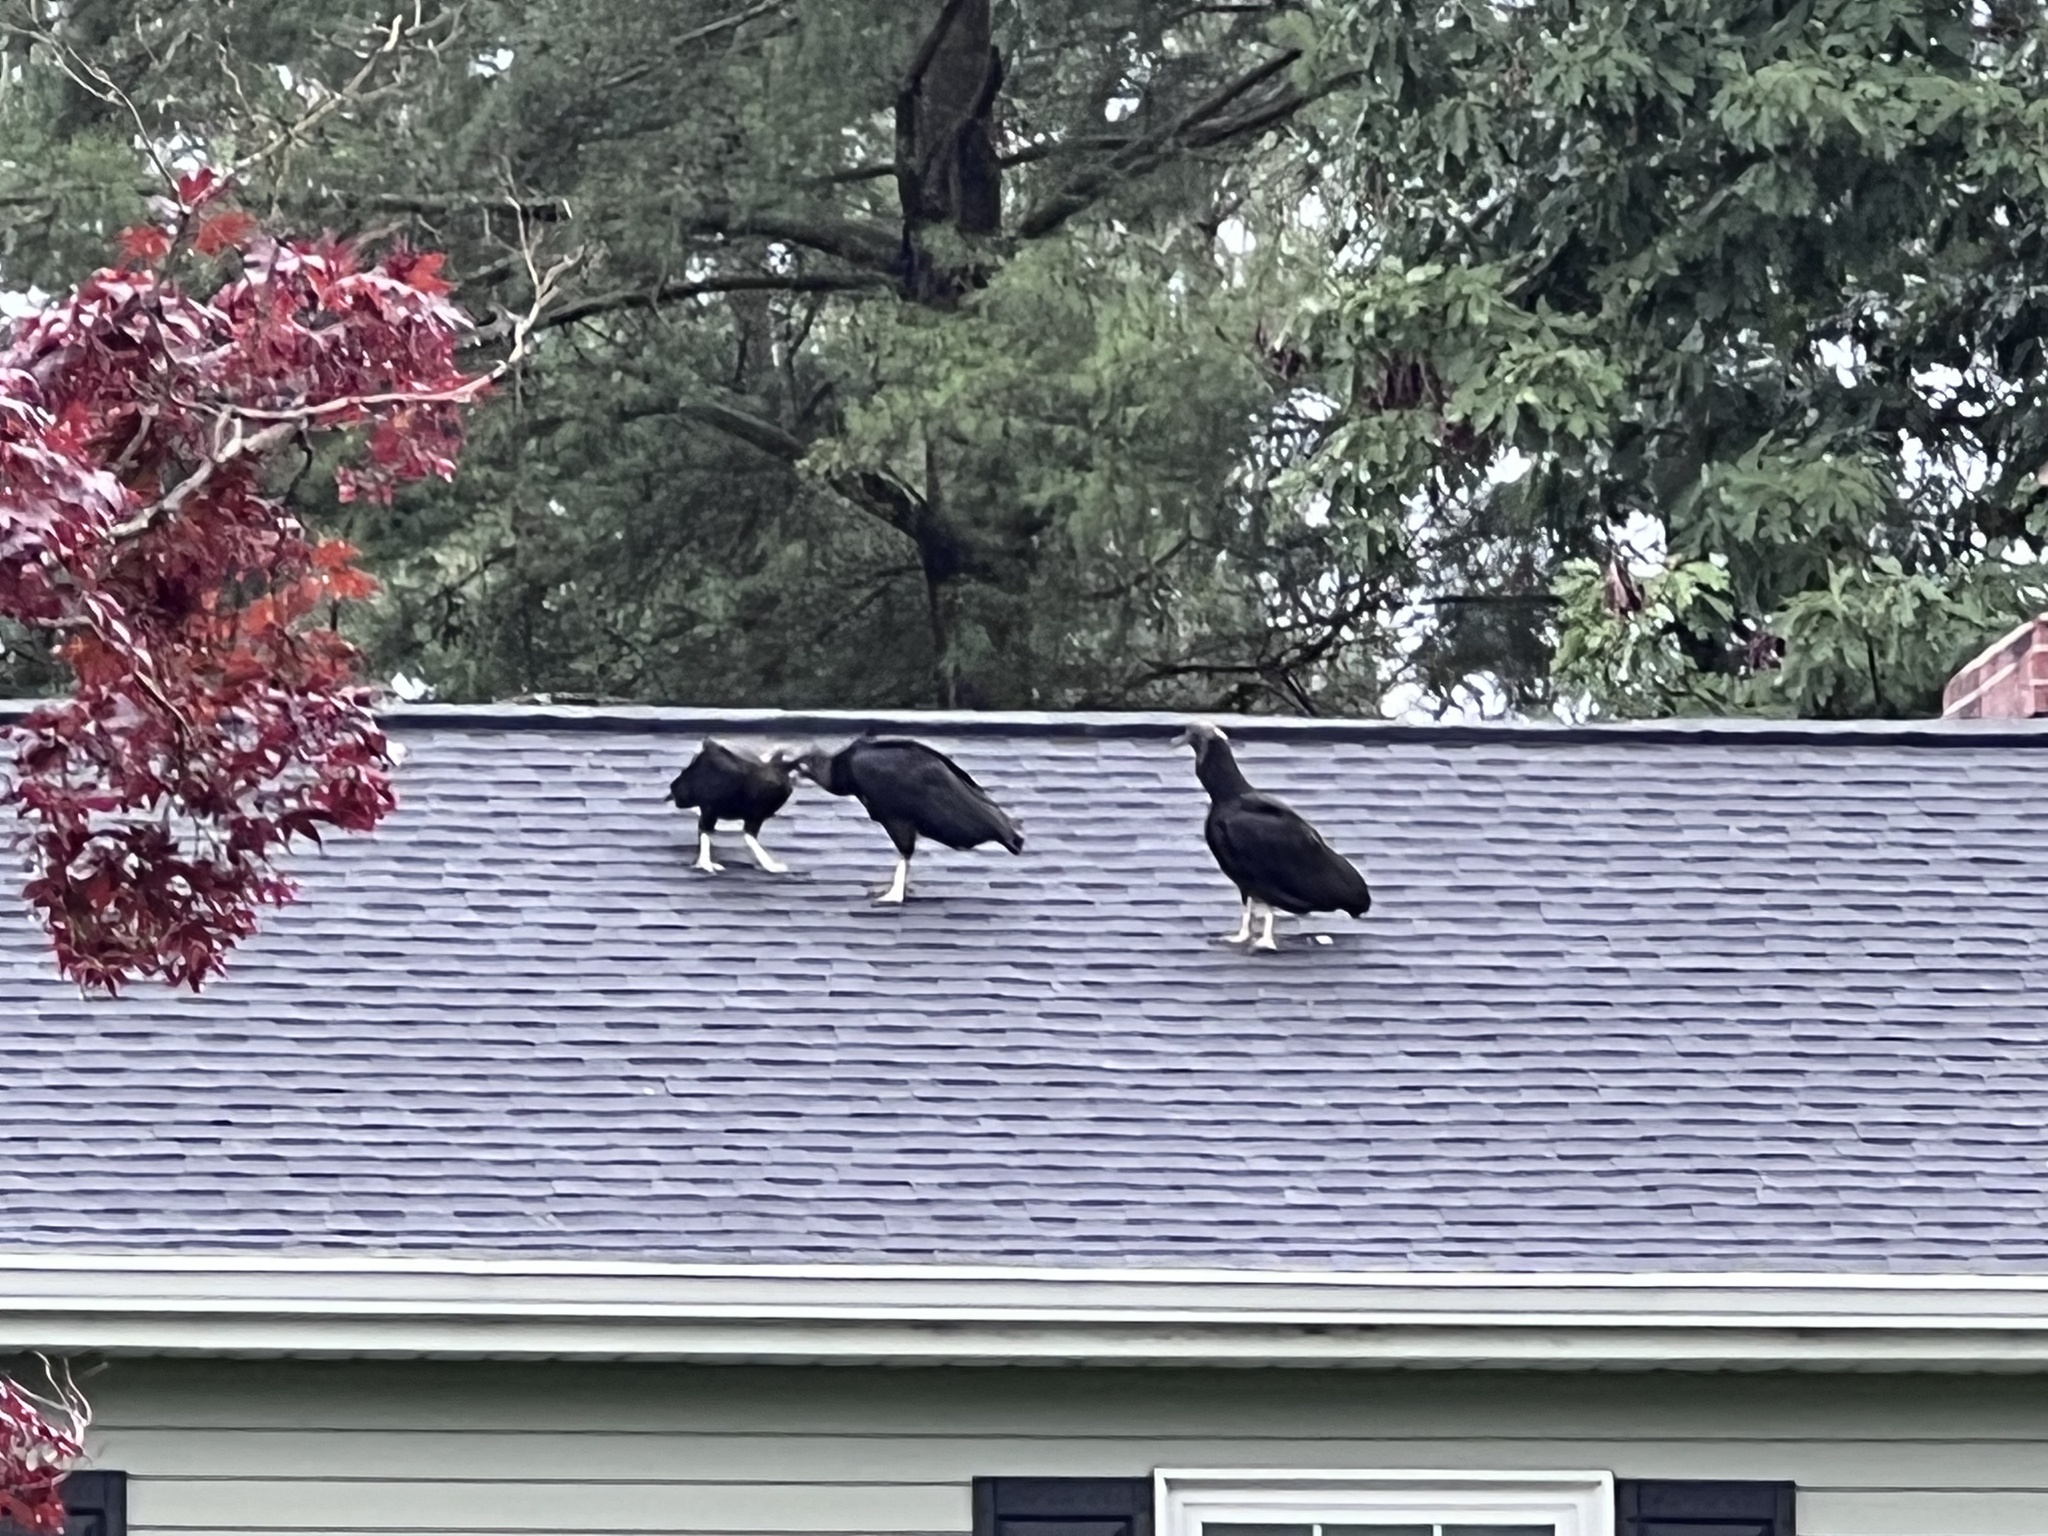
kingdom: Animalia
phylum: Chordata
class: Aves
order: Accipitriformes
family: Cathartidae
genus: Coragyps
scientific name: Coragyps atratus
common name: Black vulture
